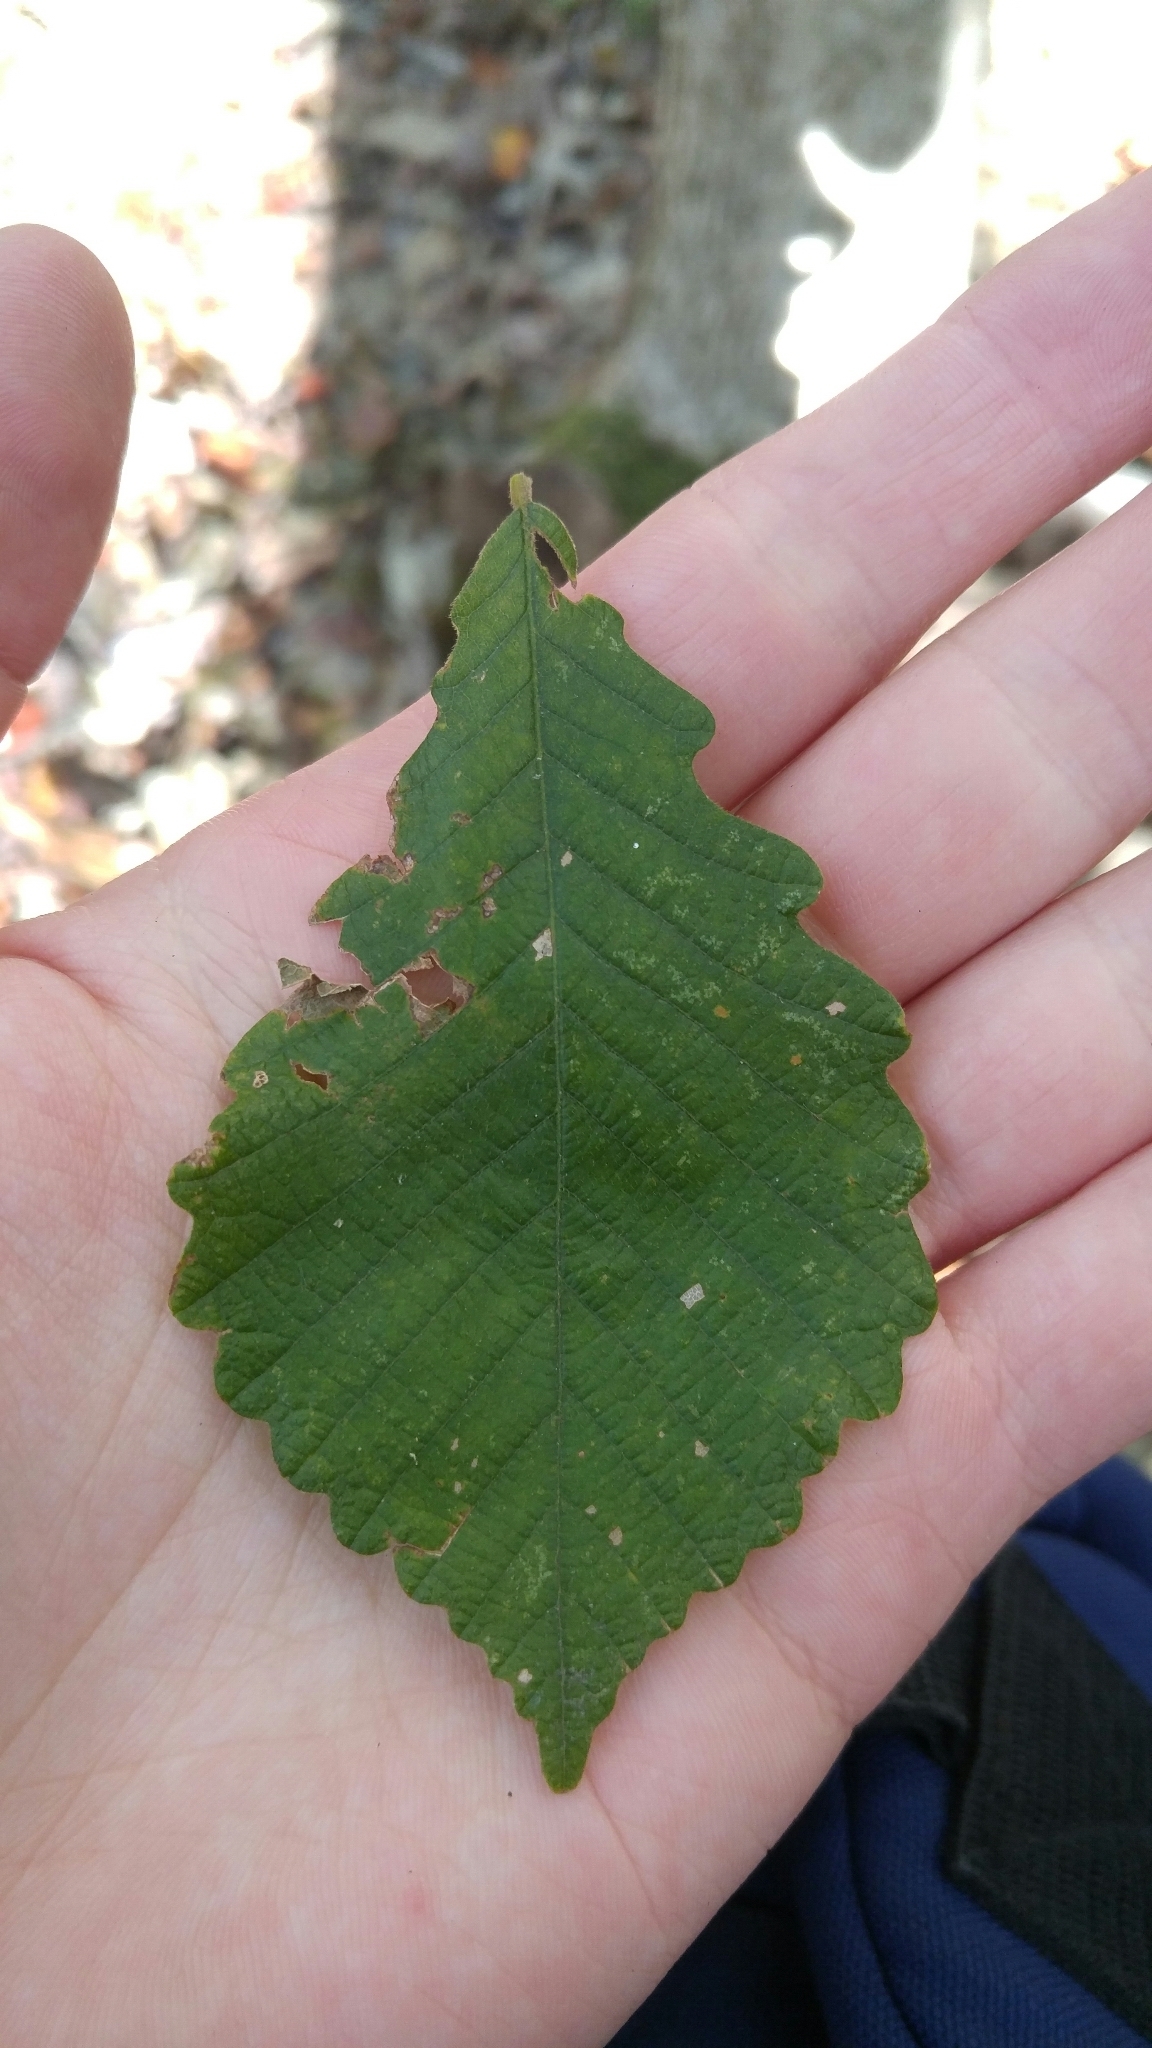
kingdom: Plantae
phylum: Tracheophyta
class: Magnoliopsida
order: Fagales
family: Fagaceae
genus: Quercus
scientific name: Quercus michauxii
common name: Swamp chestnut oak
